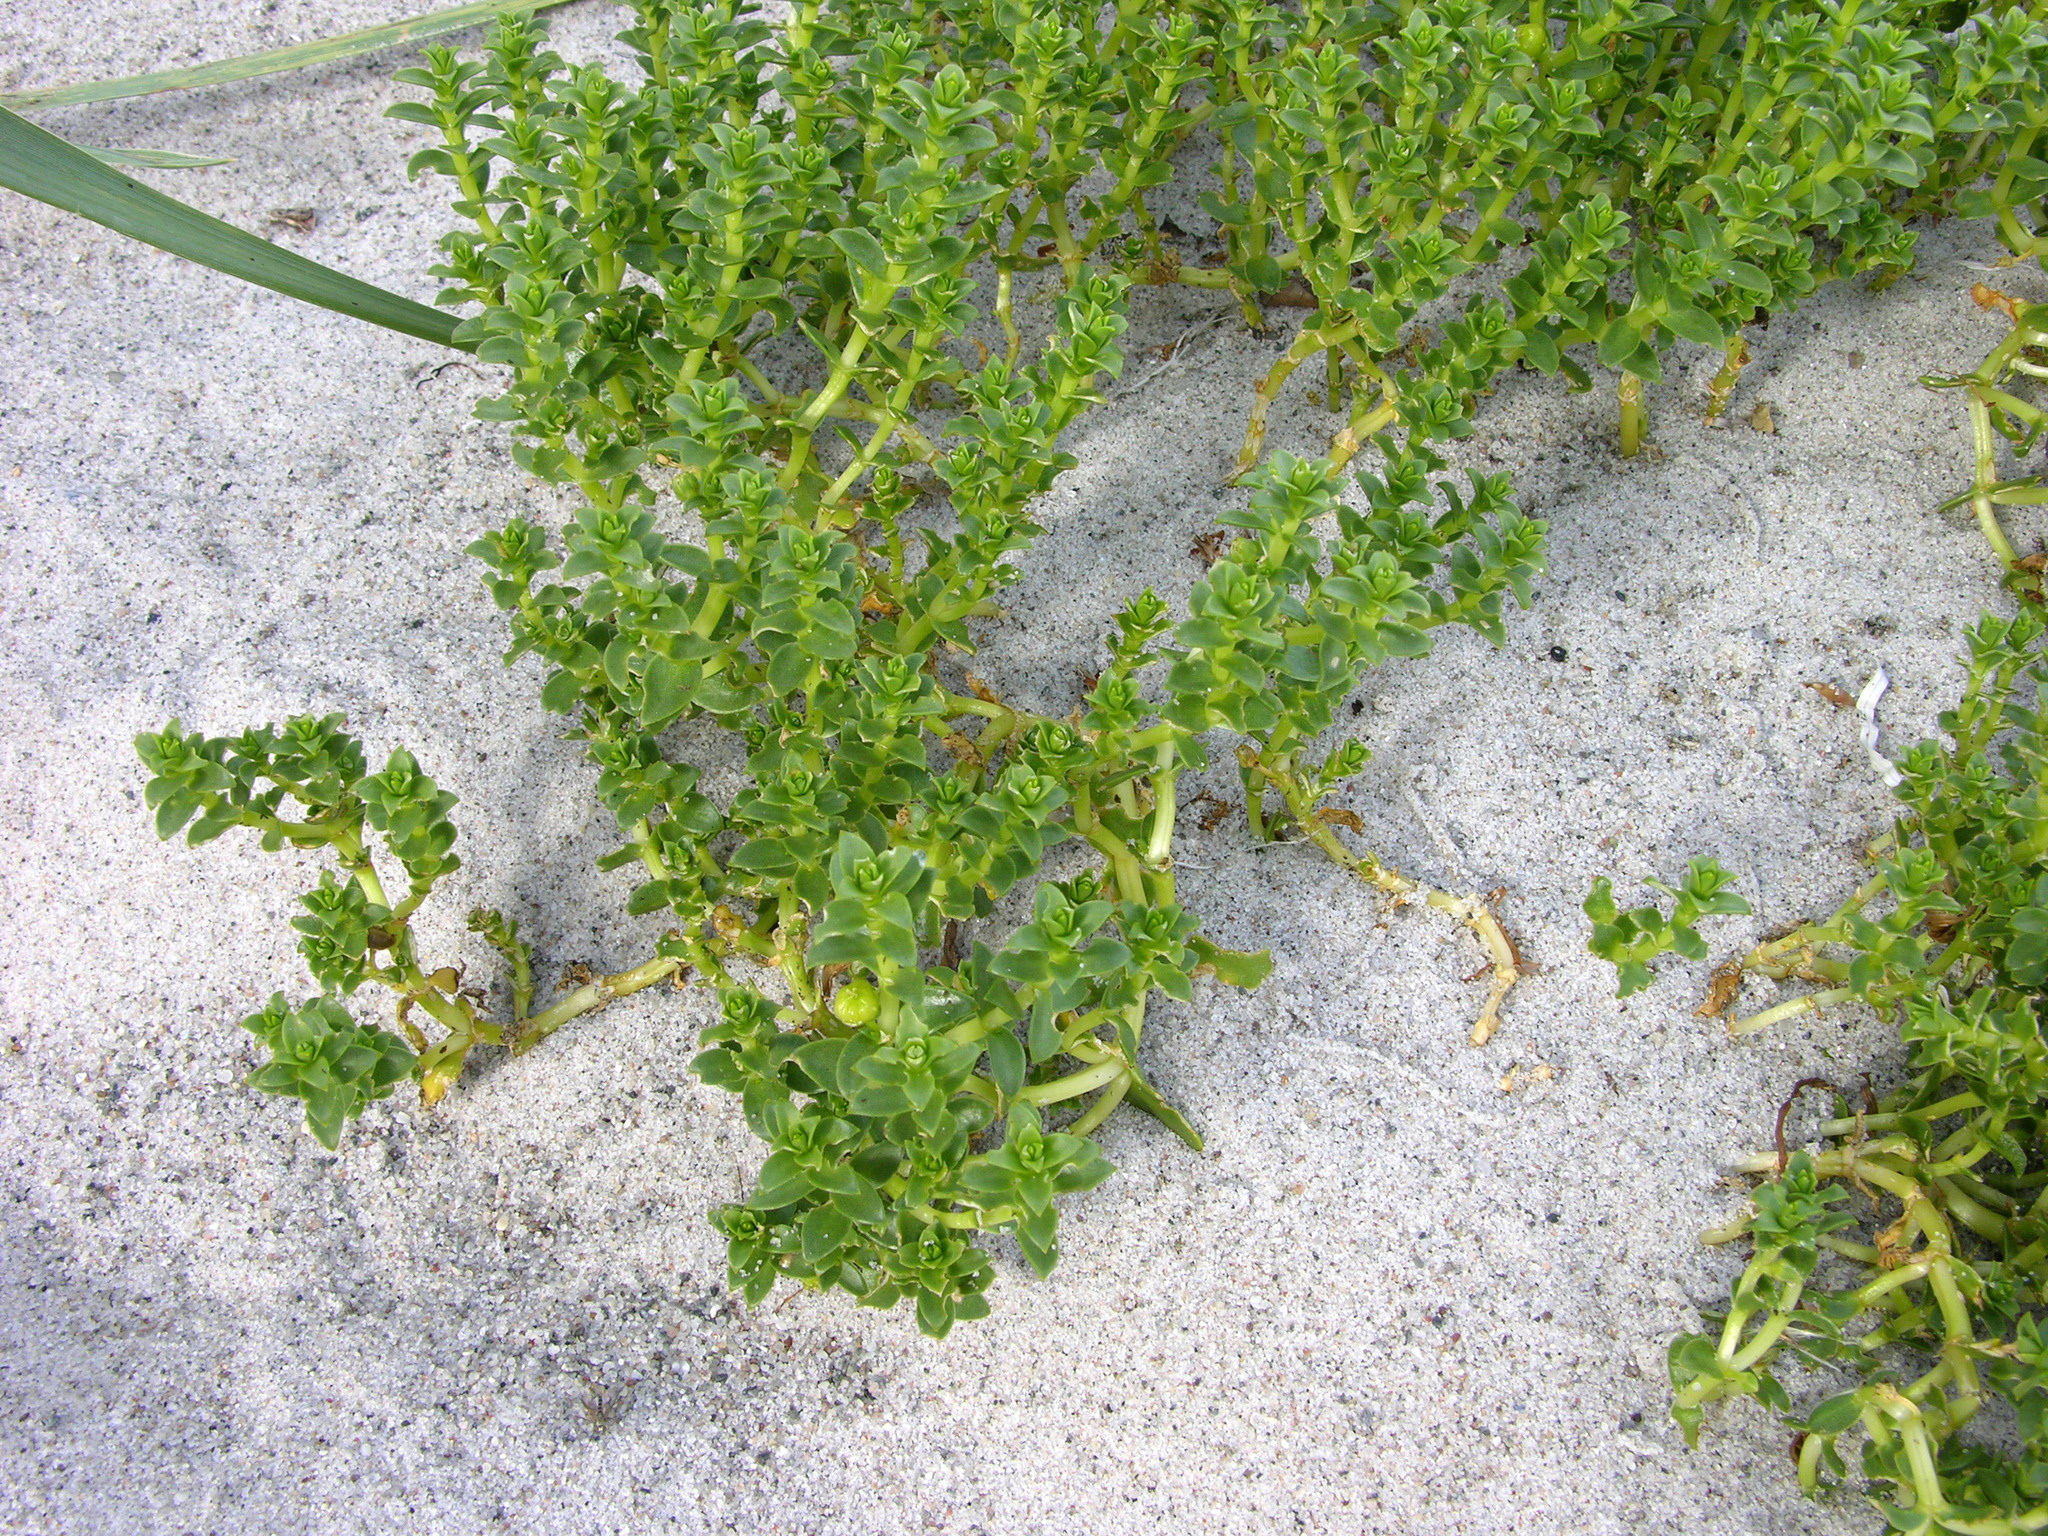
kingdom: Plantae
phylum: Tracheophyta
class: Magnoliopsida
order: Caryophyllales
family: Caryophyllaceae
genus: Honckenya
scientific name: Honckenya peploides
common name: Sea sandwort
